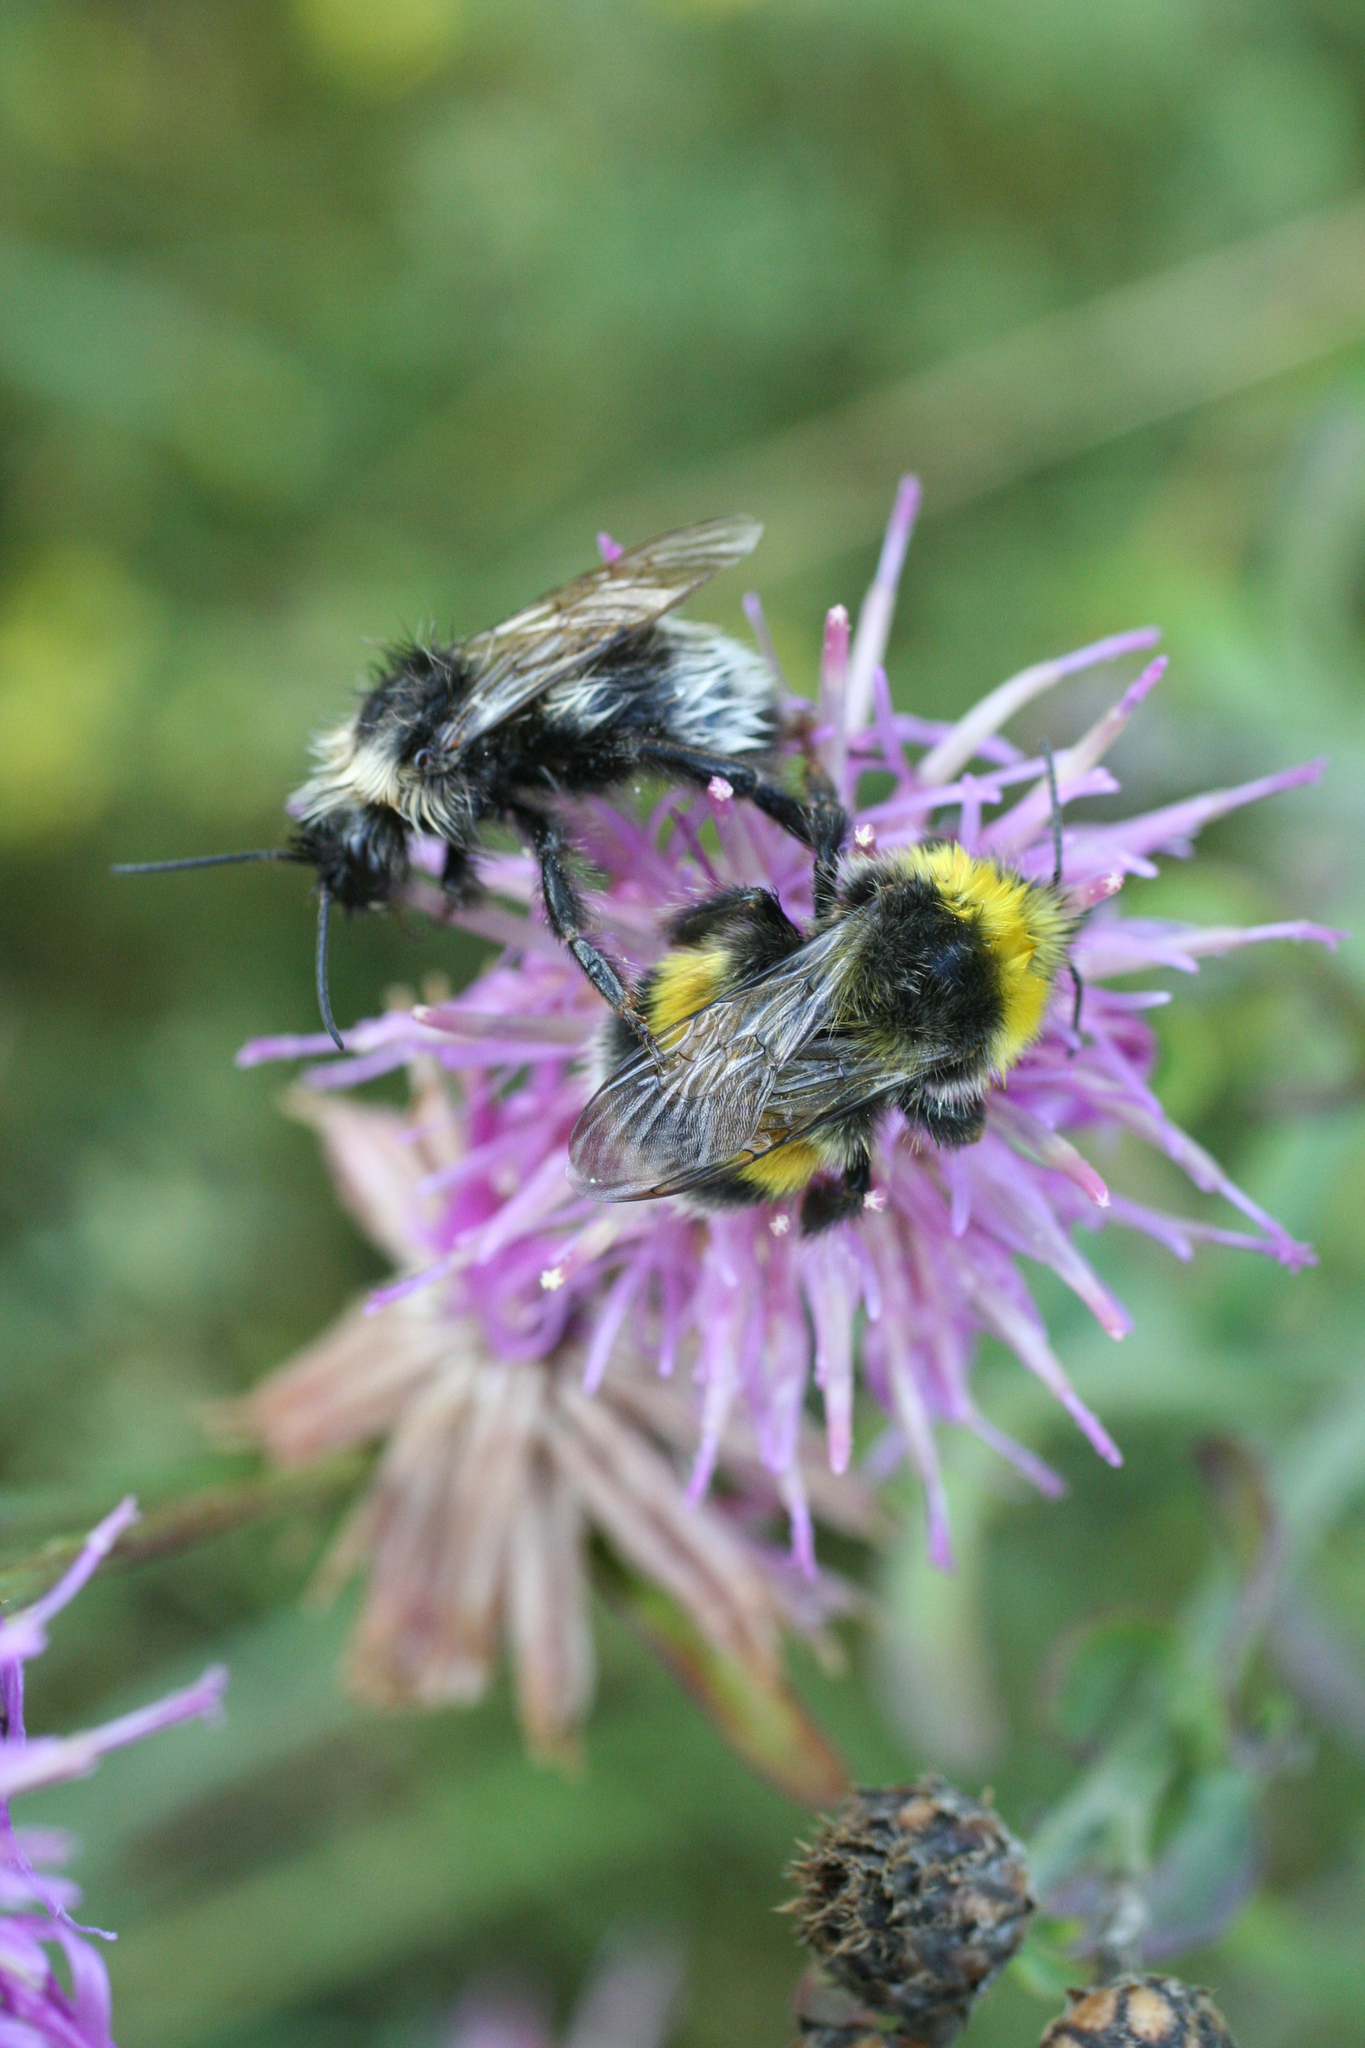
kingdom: Animalia
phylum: Arthropoda
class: Insecta
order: Hymenoptera
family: Apidae
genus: Bombus
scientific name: Bombus
